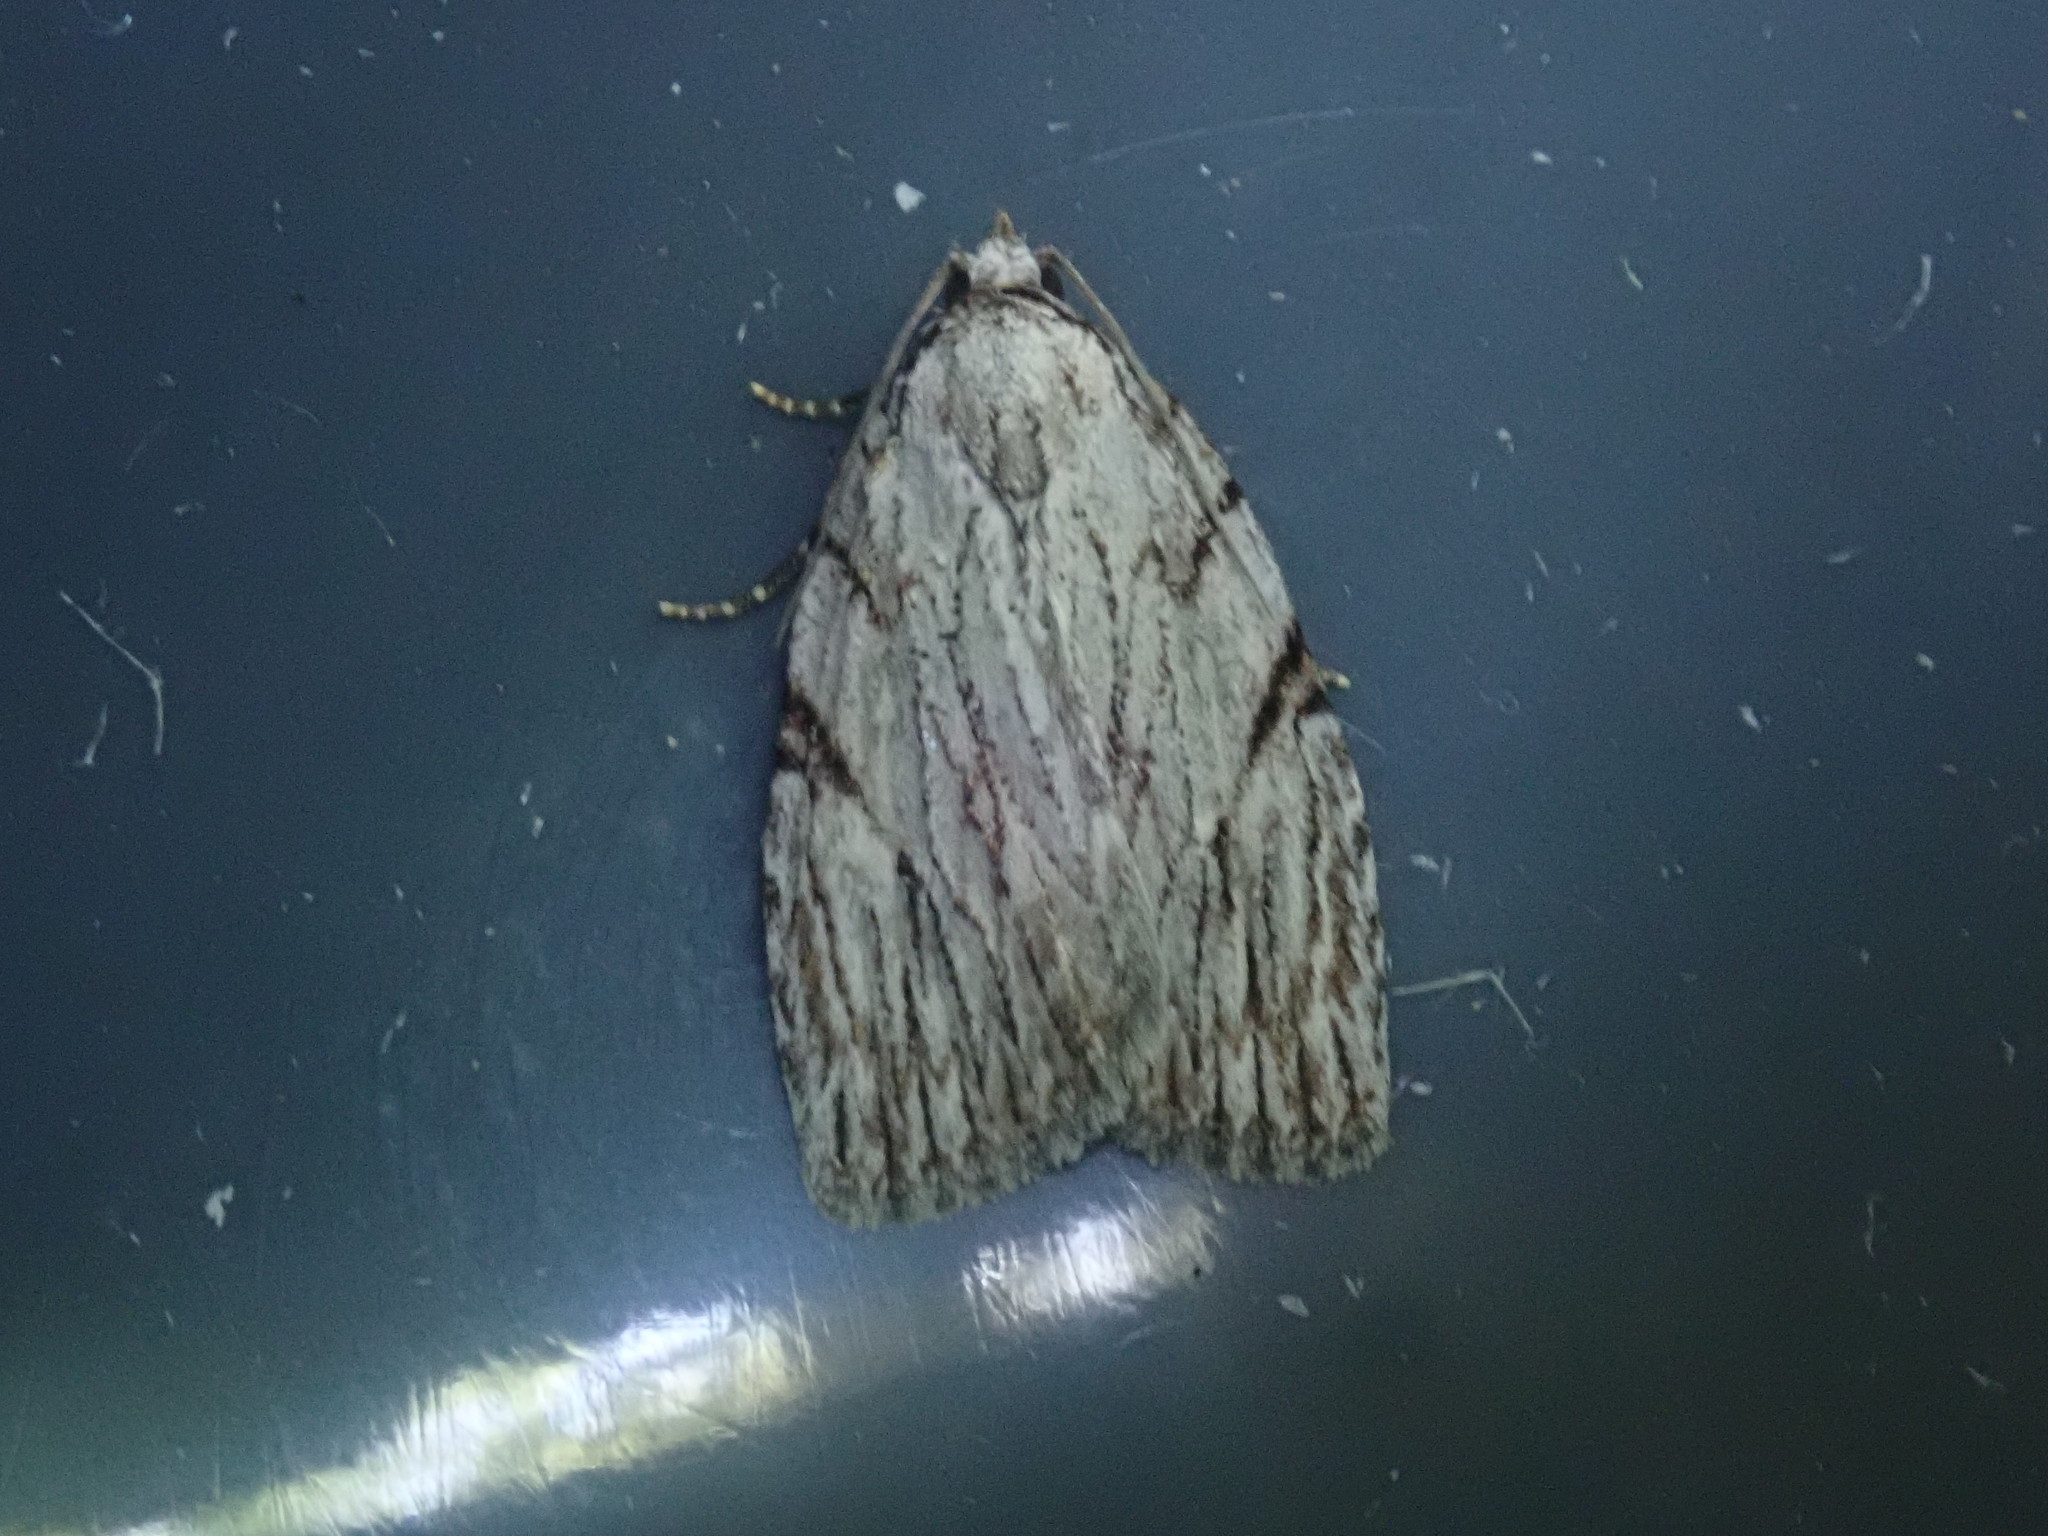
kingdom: Animalia
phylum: Arthropoda
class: Insecta
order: Lepidoptera
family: Noctuidae
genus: Balsa
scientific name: Balsa tristrigella
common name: Three-lined balsa moth
